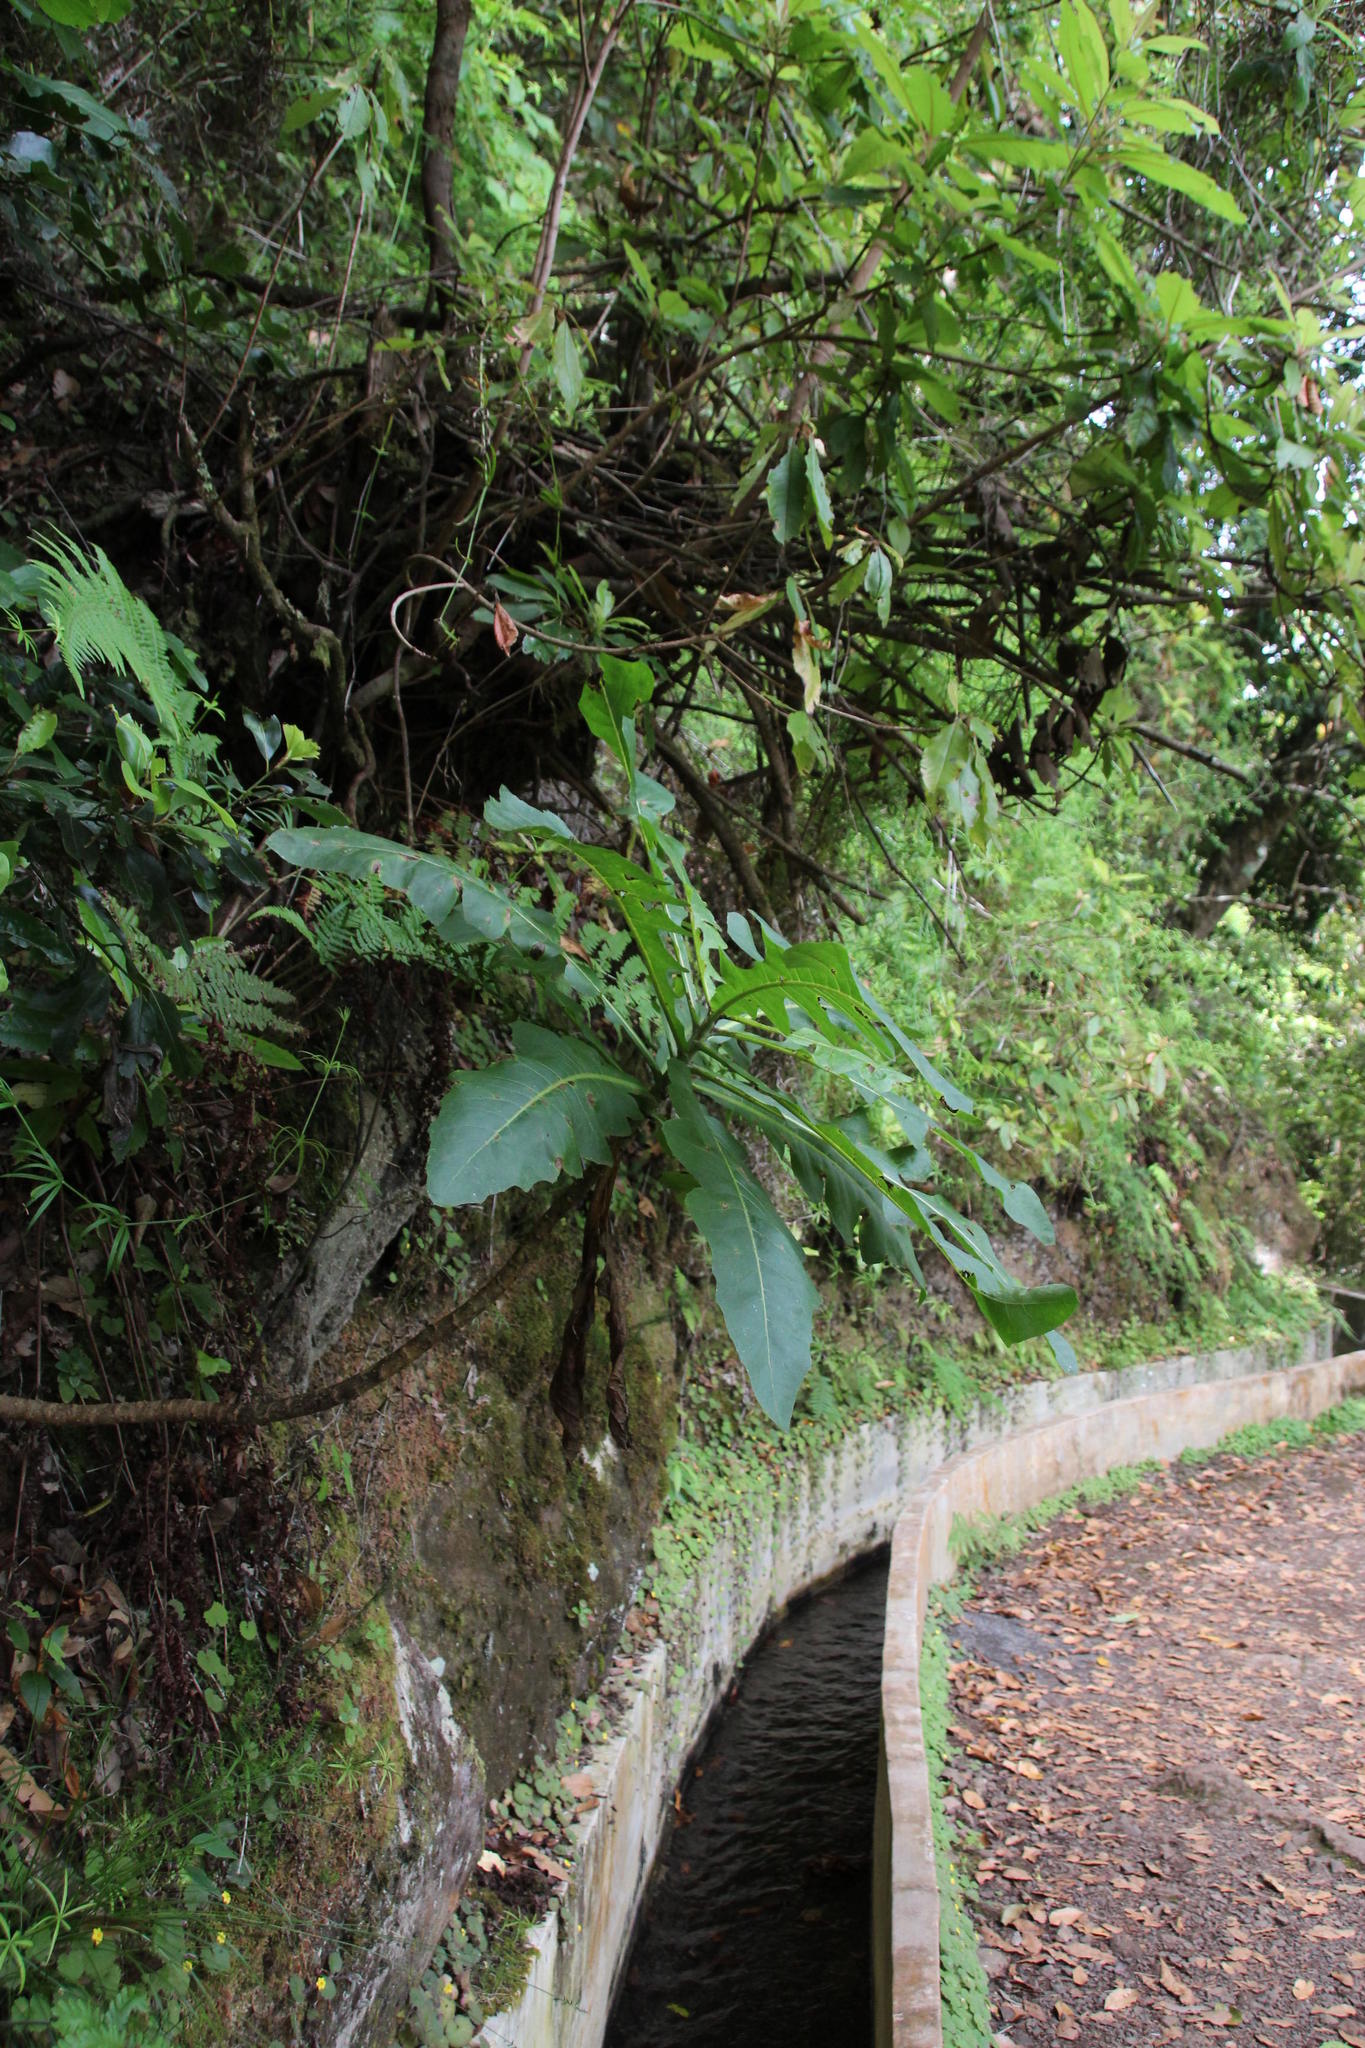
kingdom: Plantae
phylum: Tracheophyta
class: Magnoliopsida
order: Asterales
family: Asteraceae
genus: Sonchus
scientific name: Sonchus fruticosus
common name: Shrubby sow-thistle
